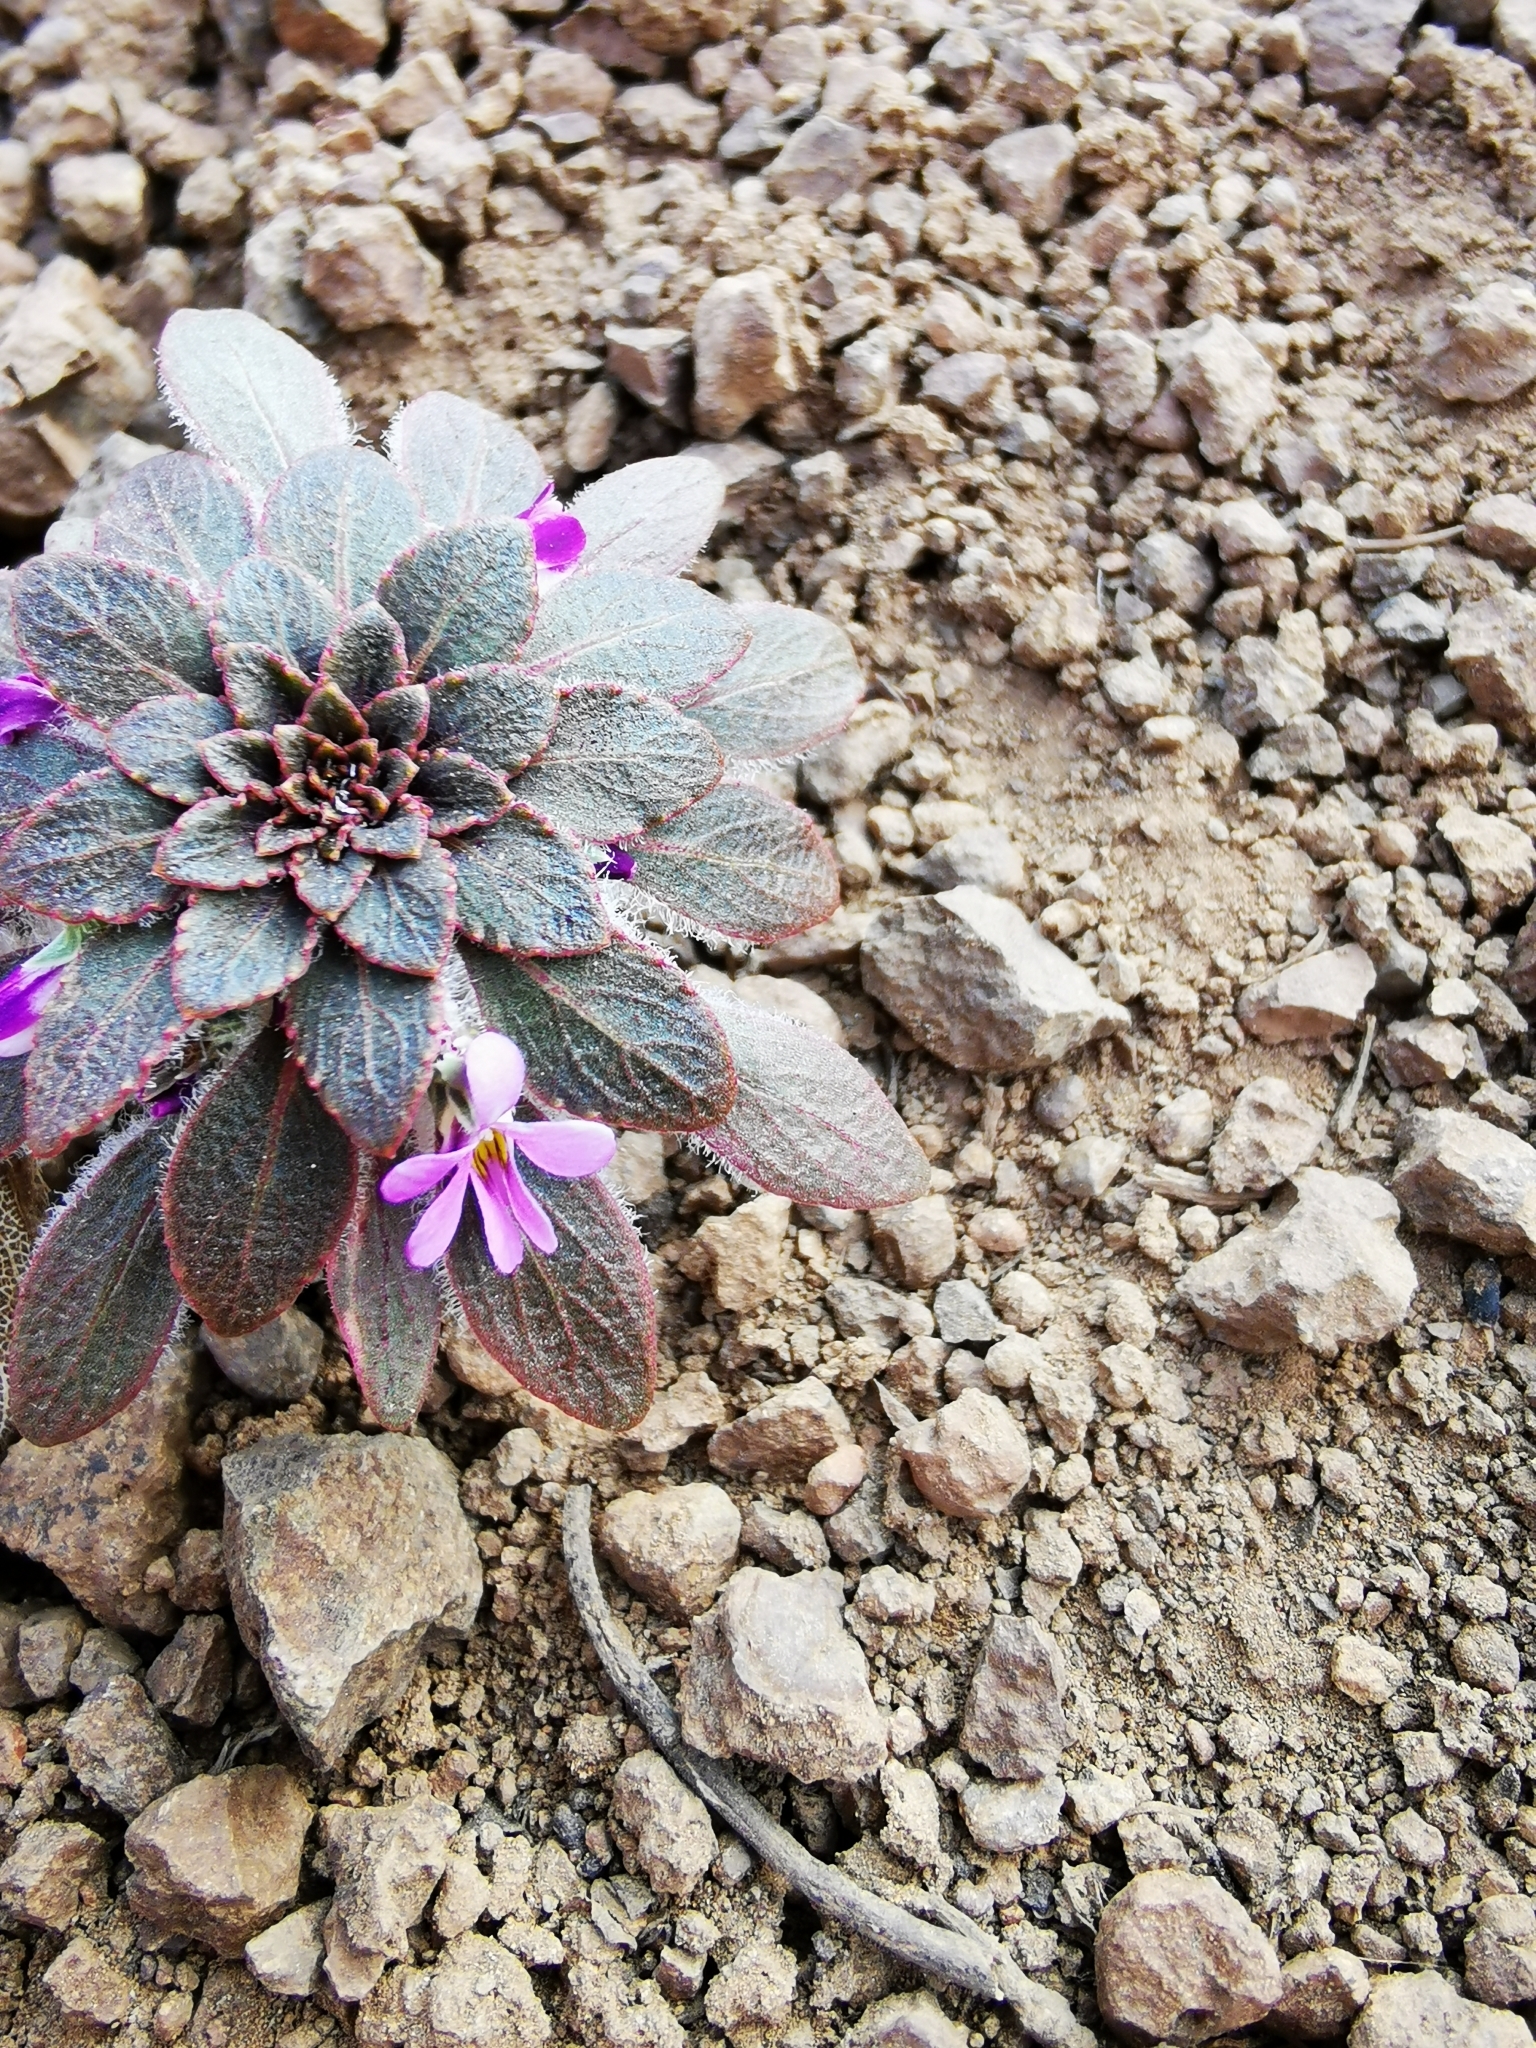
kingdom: Plantae
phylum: Tracheophyta
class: Magnoliopsida
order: Malpighiales
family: Violaceae
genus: Viola
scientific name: Viola subandina
